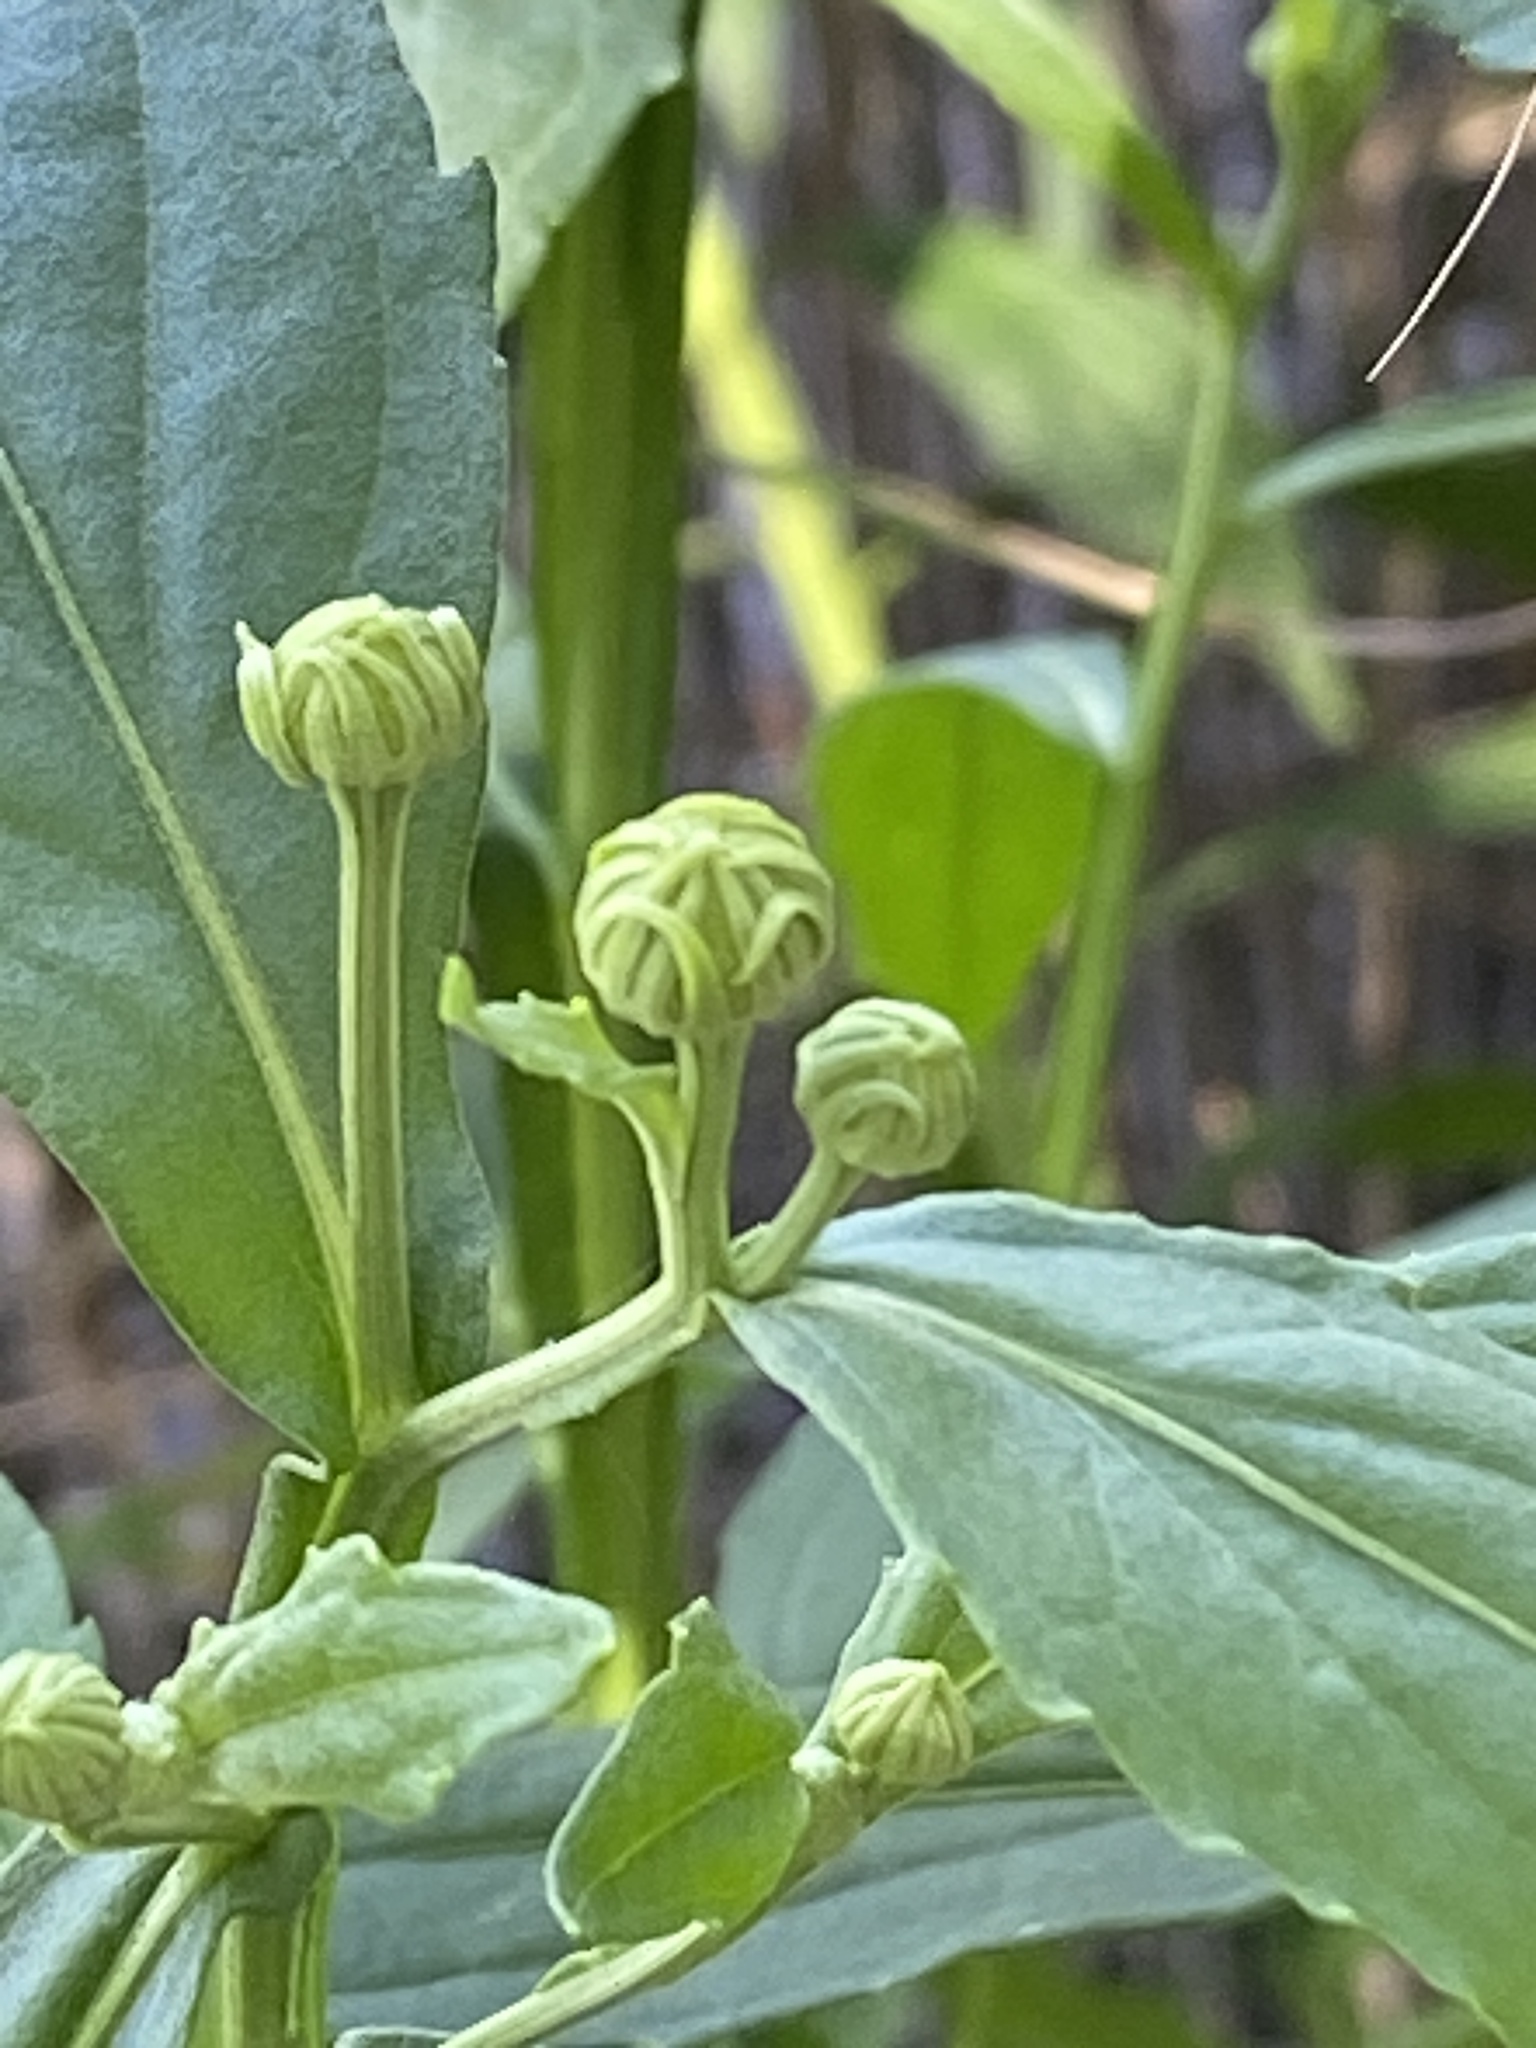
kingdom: Plantae
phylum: Tracheophyta
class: Magnoliopsida
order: Asterales
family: Asteraceae
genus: Helenium
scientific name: Helenium autumnale
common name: Sneezeweed
